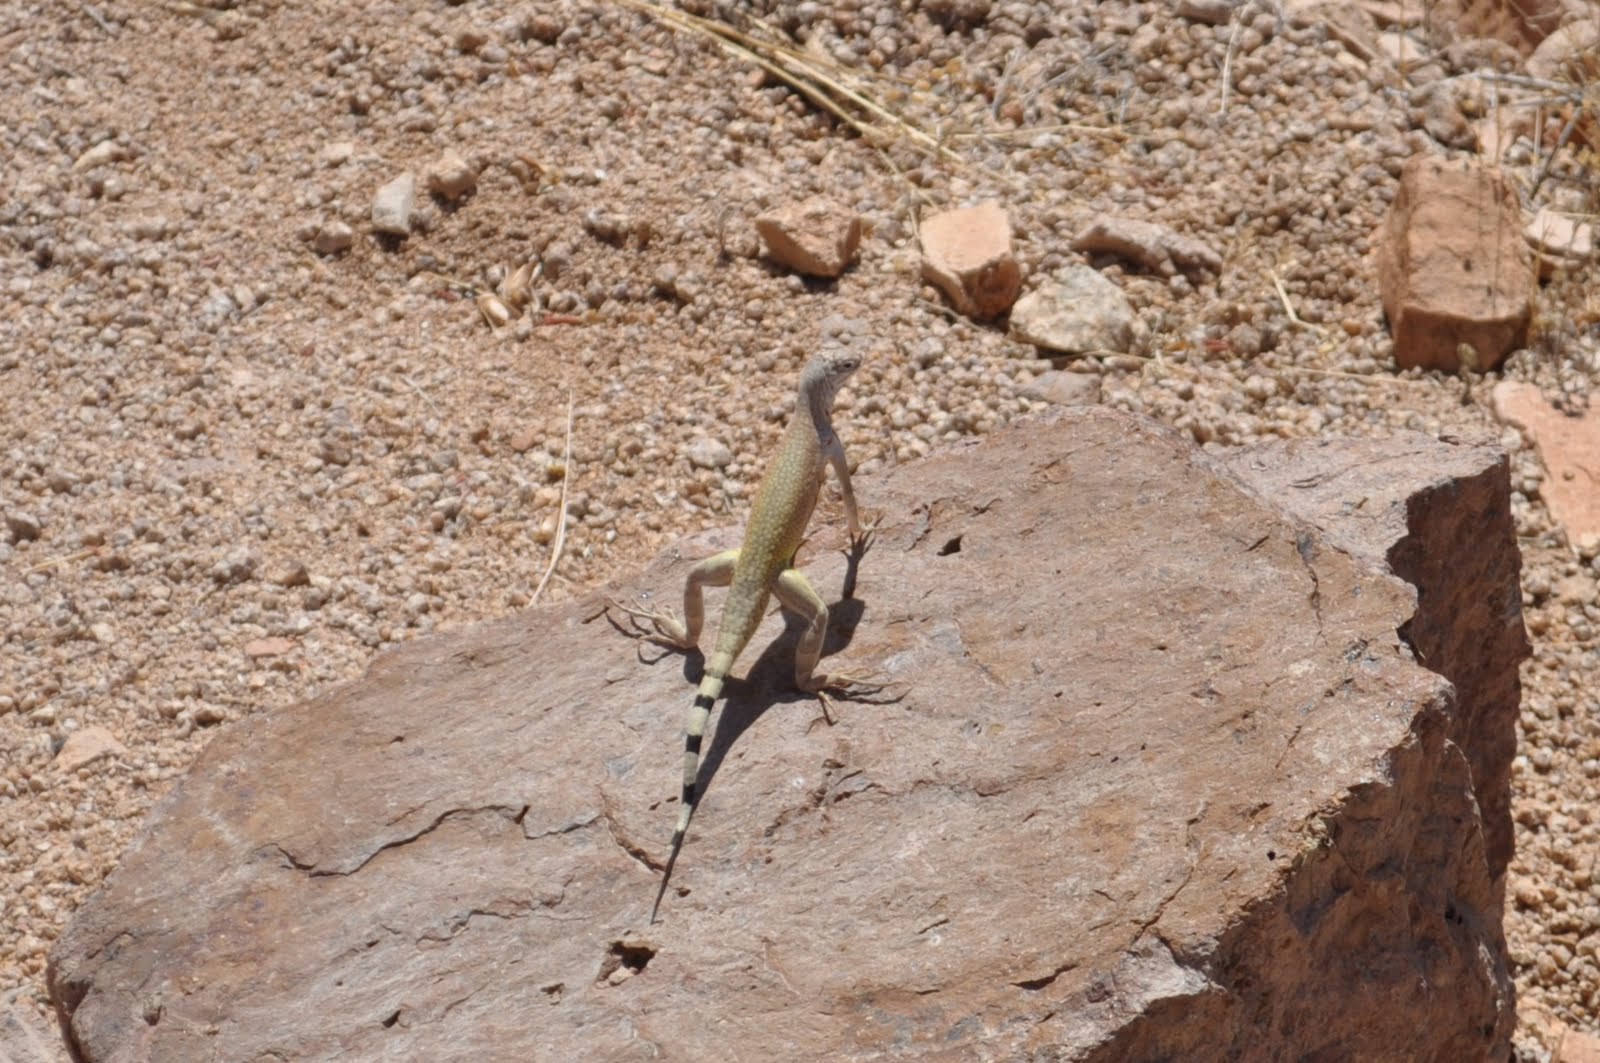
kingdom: Animalia
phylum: Chordata
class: Squamata
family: Phrynosomatidae
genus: Callisaurus
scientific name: Callisaurus draconoides
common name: Zebra-tailed lizard
